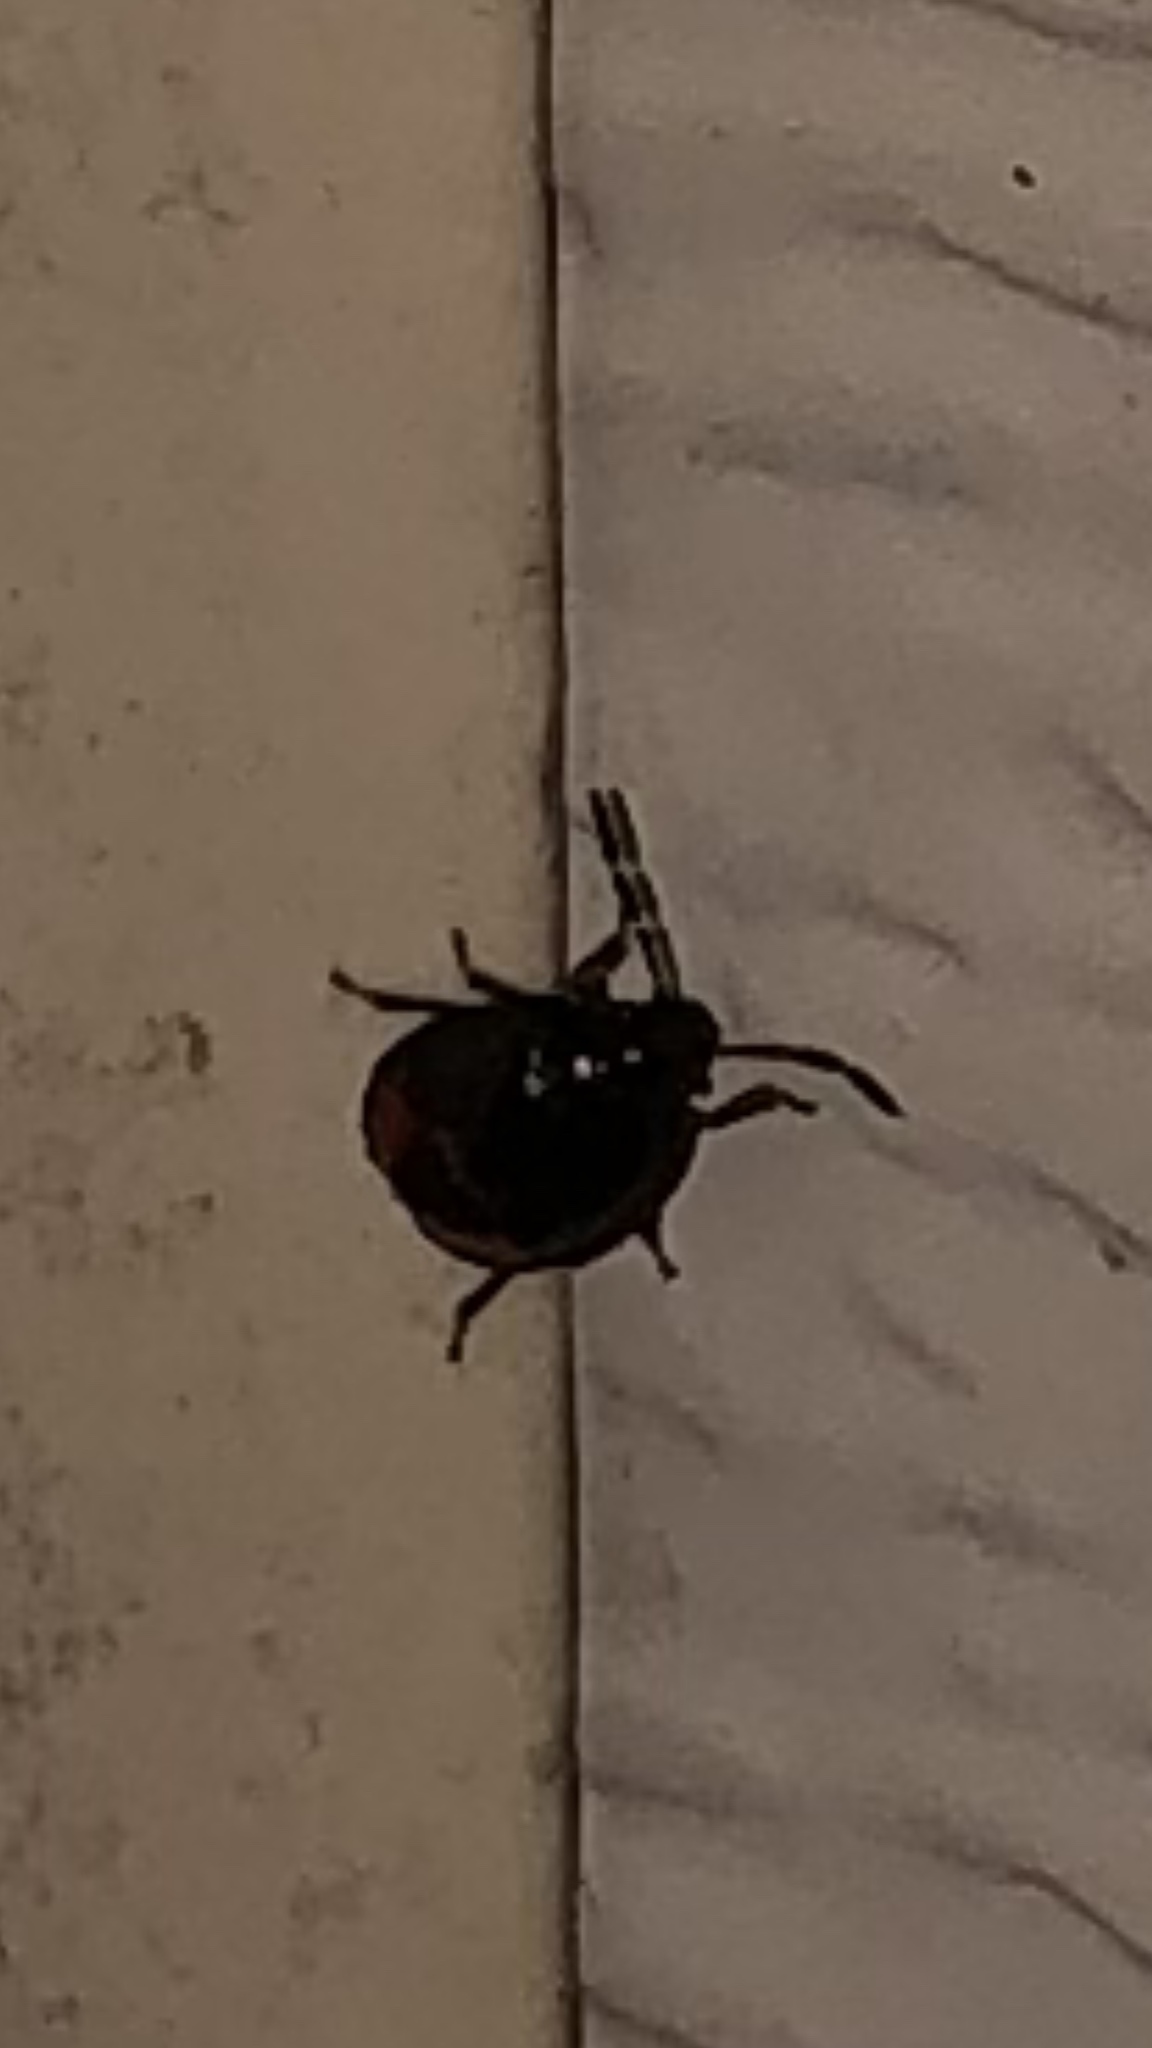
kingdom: Animalia
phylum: Arthropoda
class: Insecta
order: Hemiptera
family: Cydnidae
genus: Sehirus
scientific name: Sehirus cinctus
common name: White-margined burrower bug
